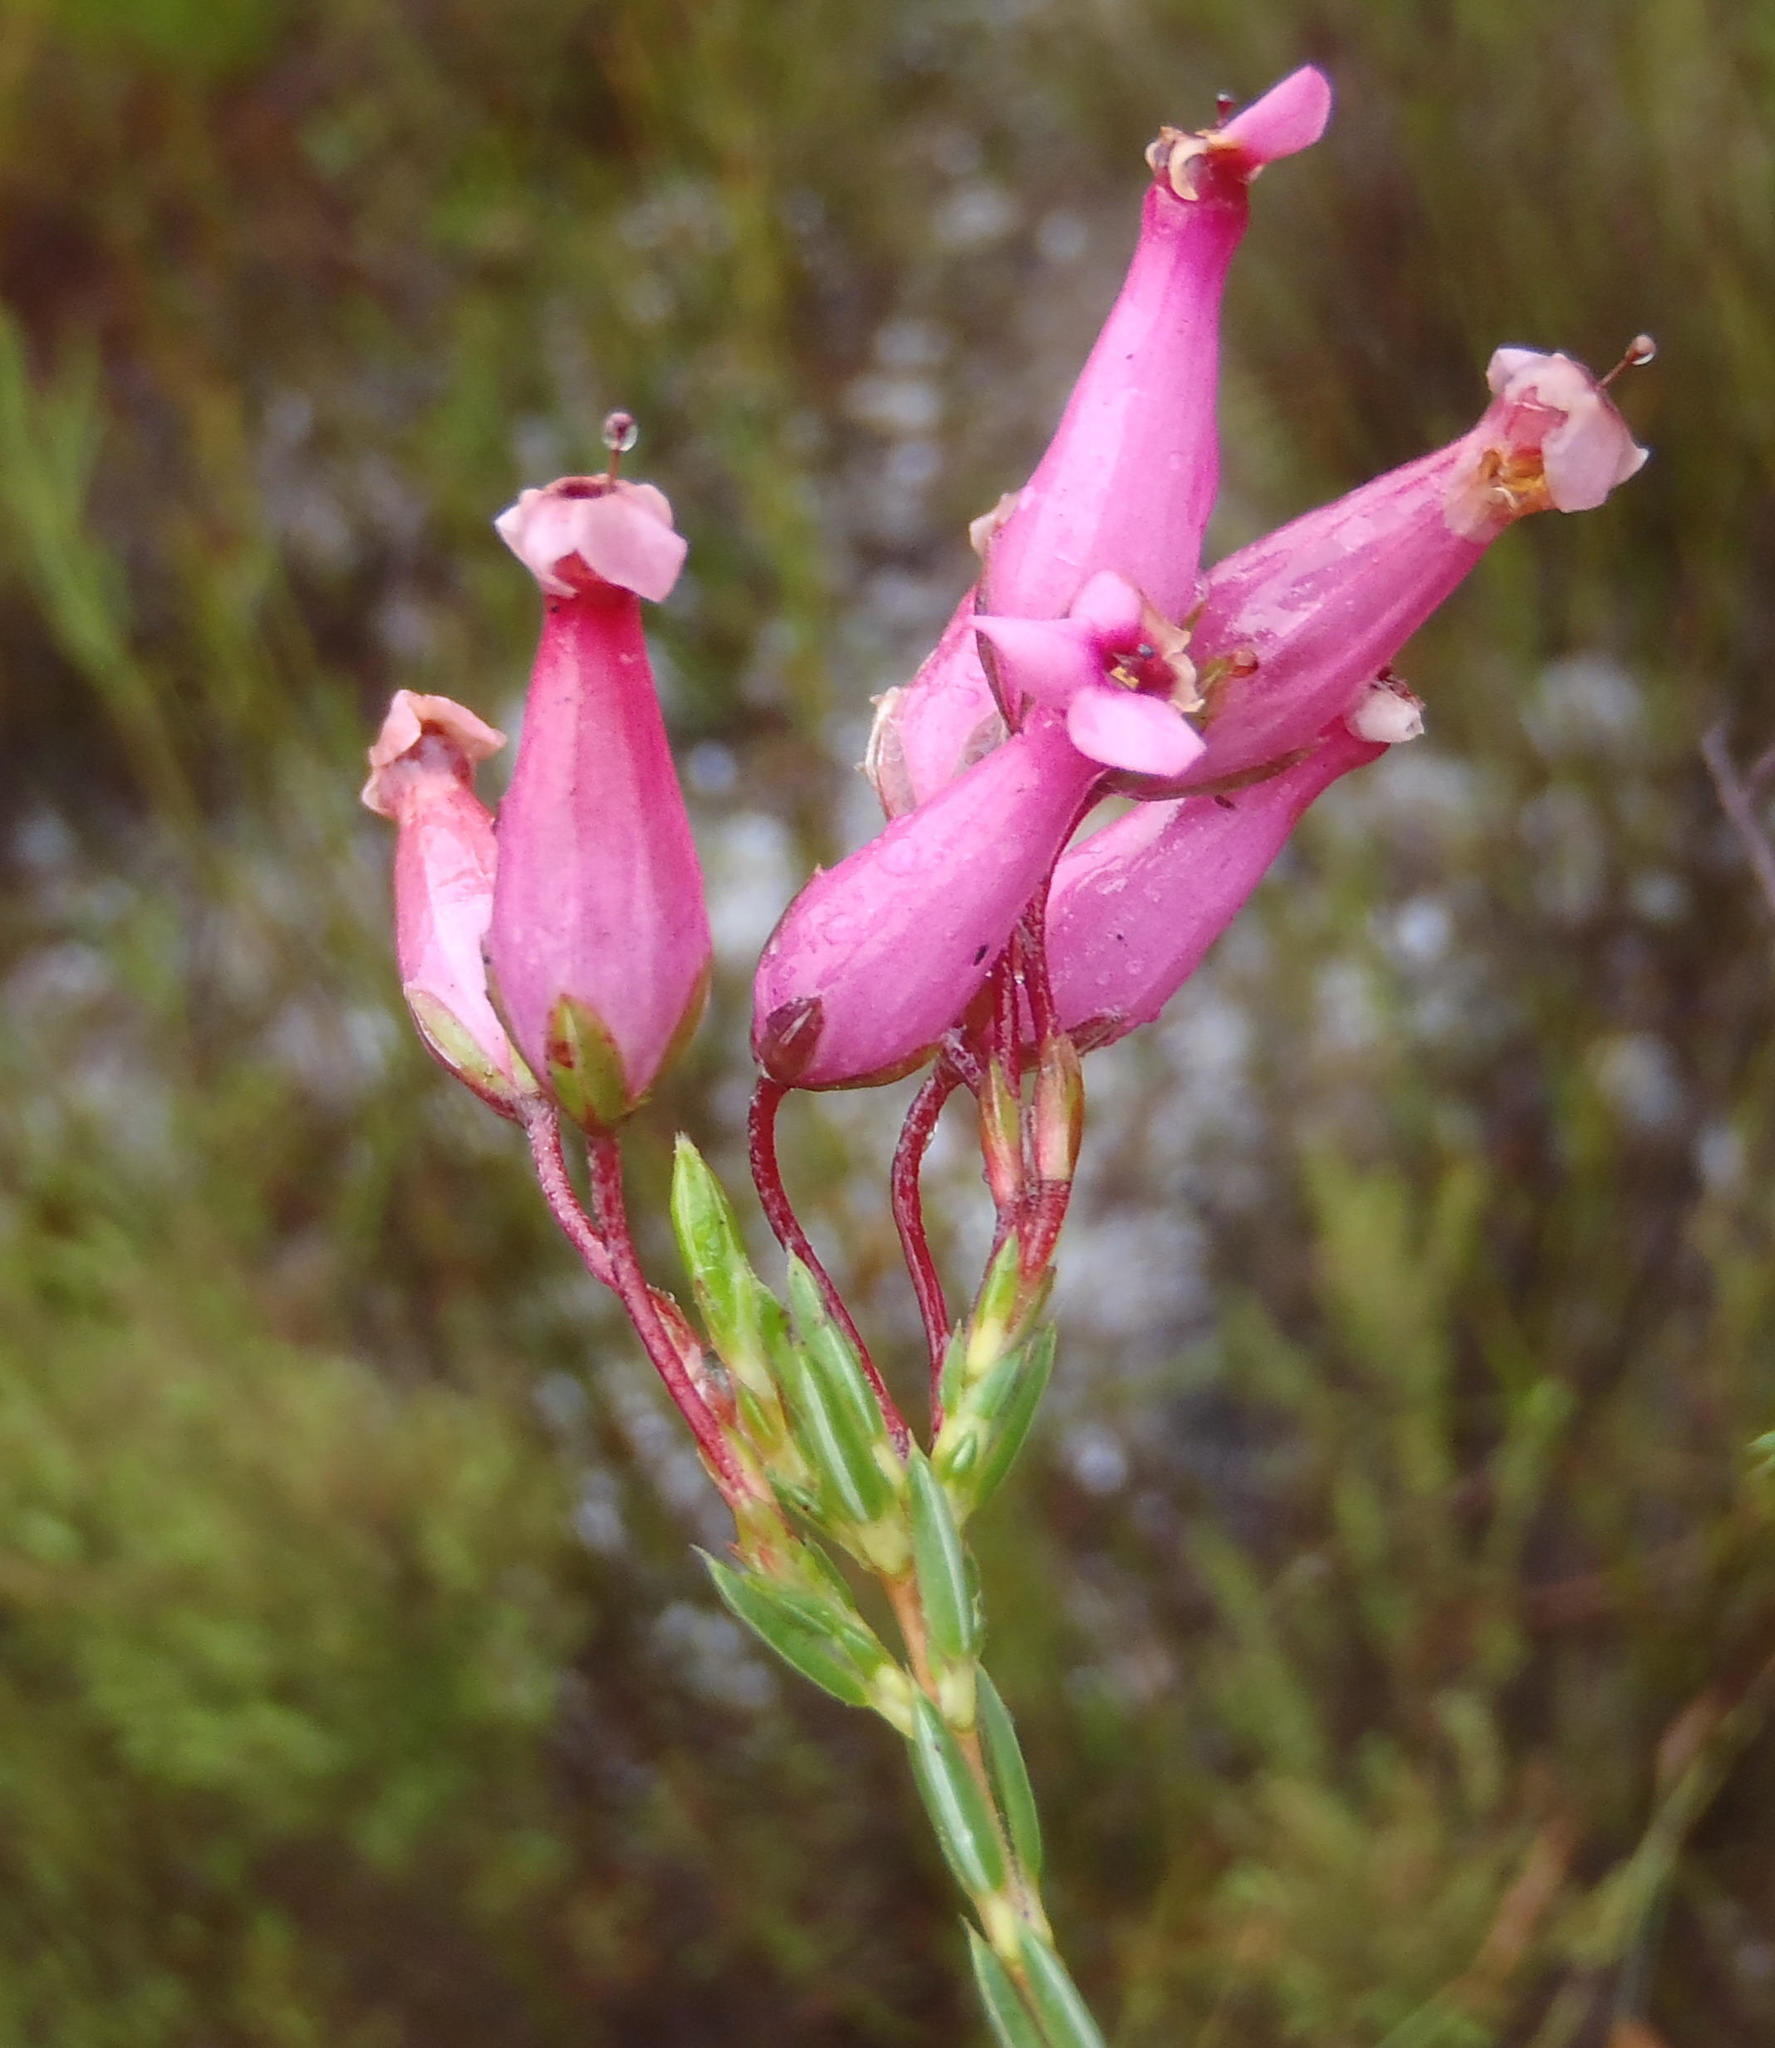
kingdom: Plantae
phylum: Tracheophyta
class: Magnoliopsida
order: Ericales
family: Ericaceae
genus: Erica
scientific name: Erica irbyana
